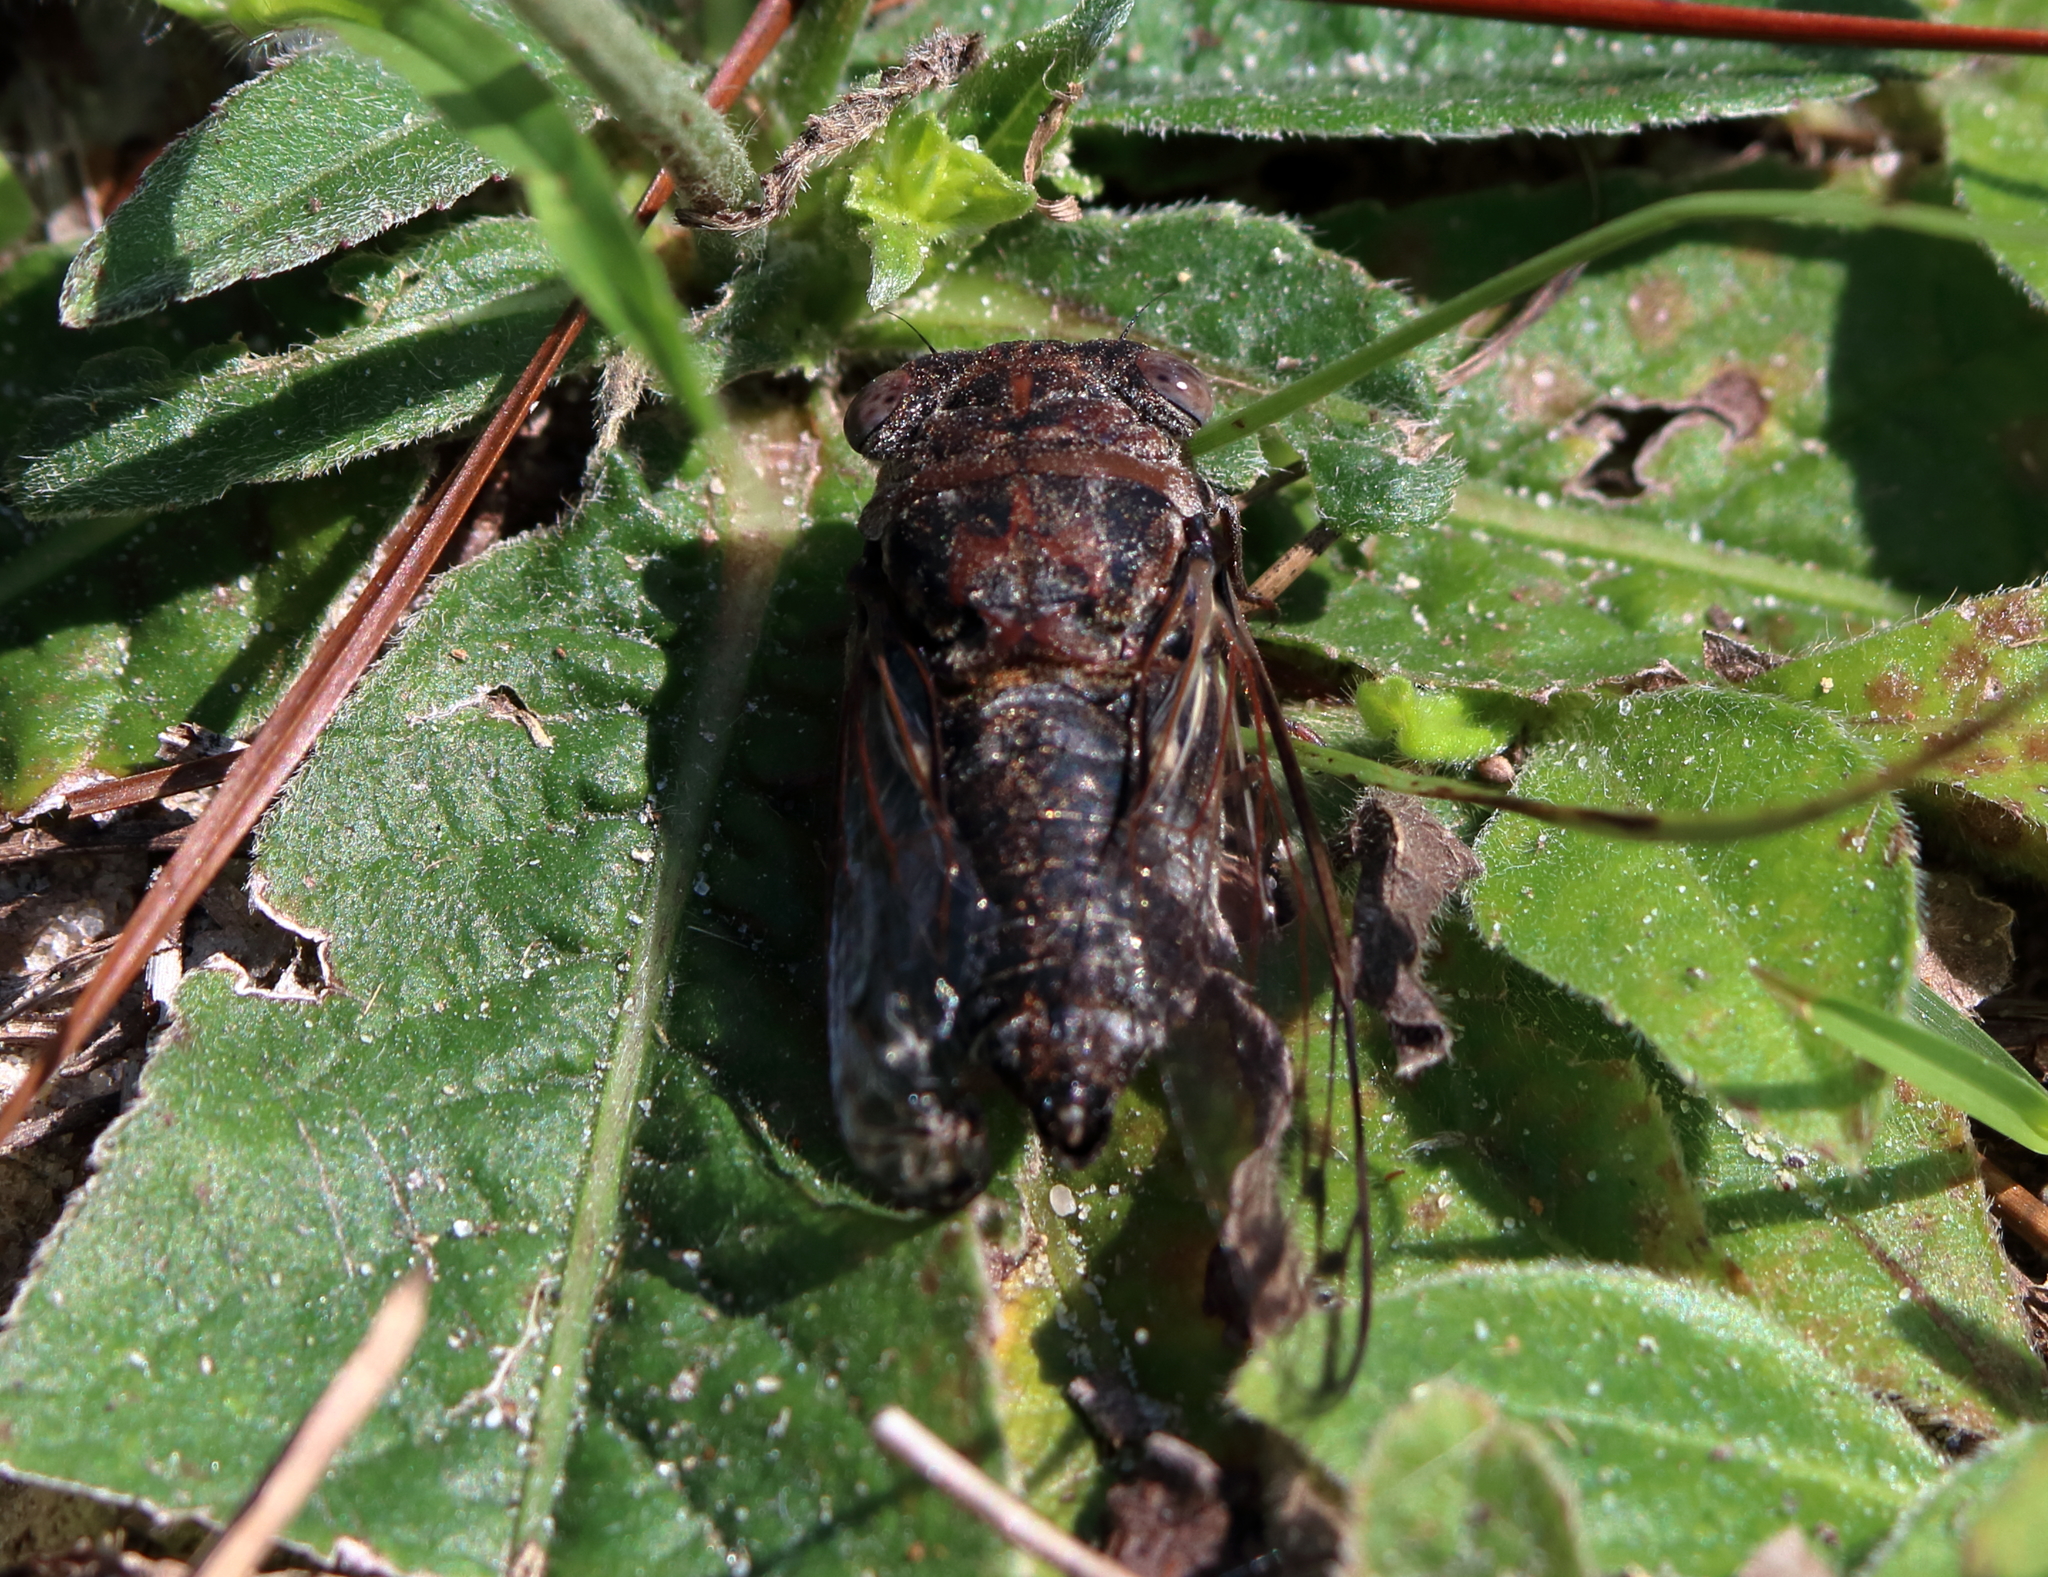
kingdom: Animalia
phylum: Arthropoda
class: Insecta
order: Hemiptera
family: Cicadidae
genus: Neotibicen
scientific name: Neotibicen davisi
